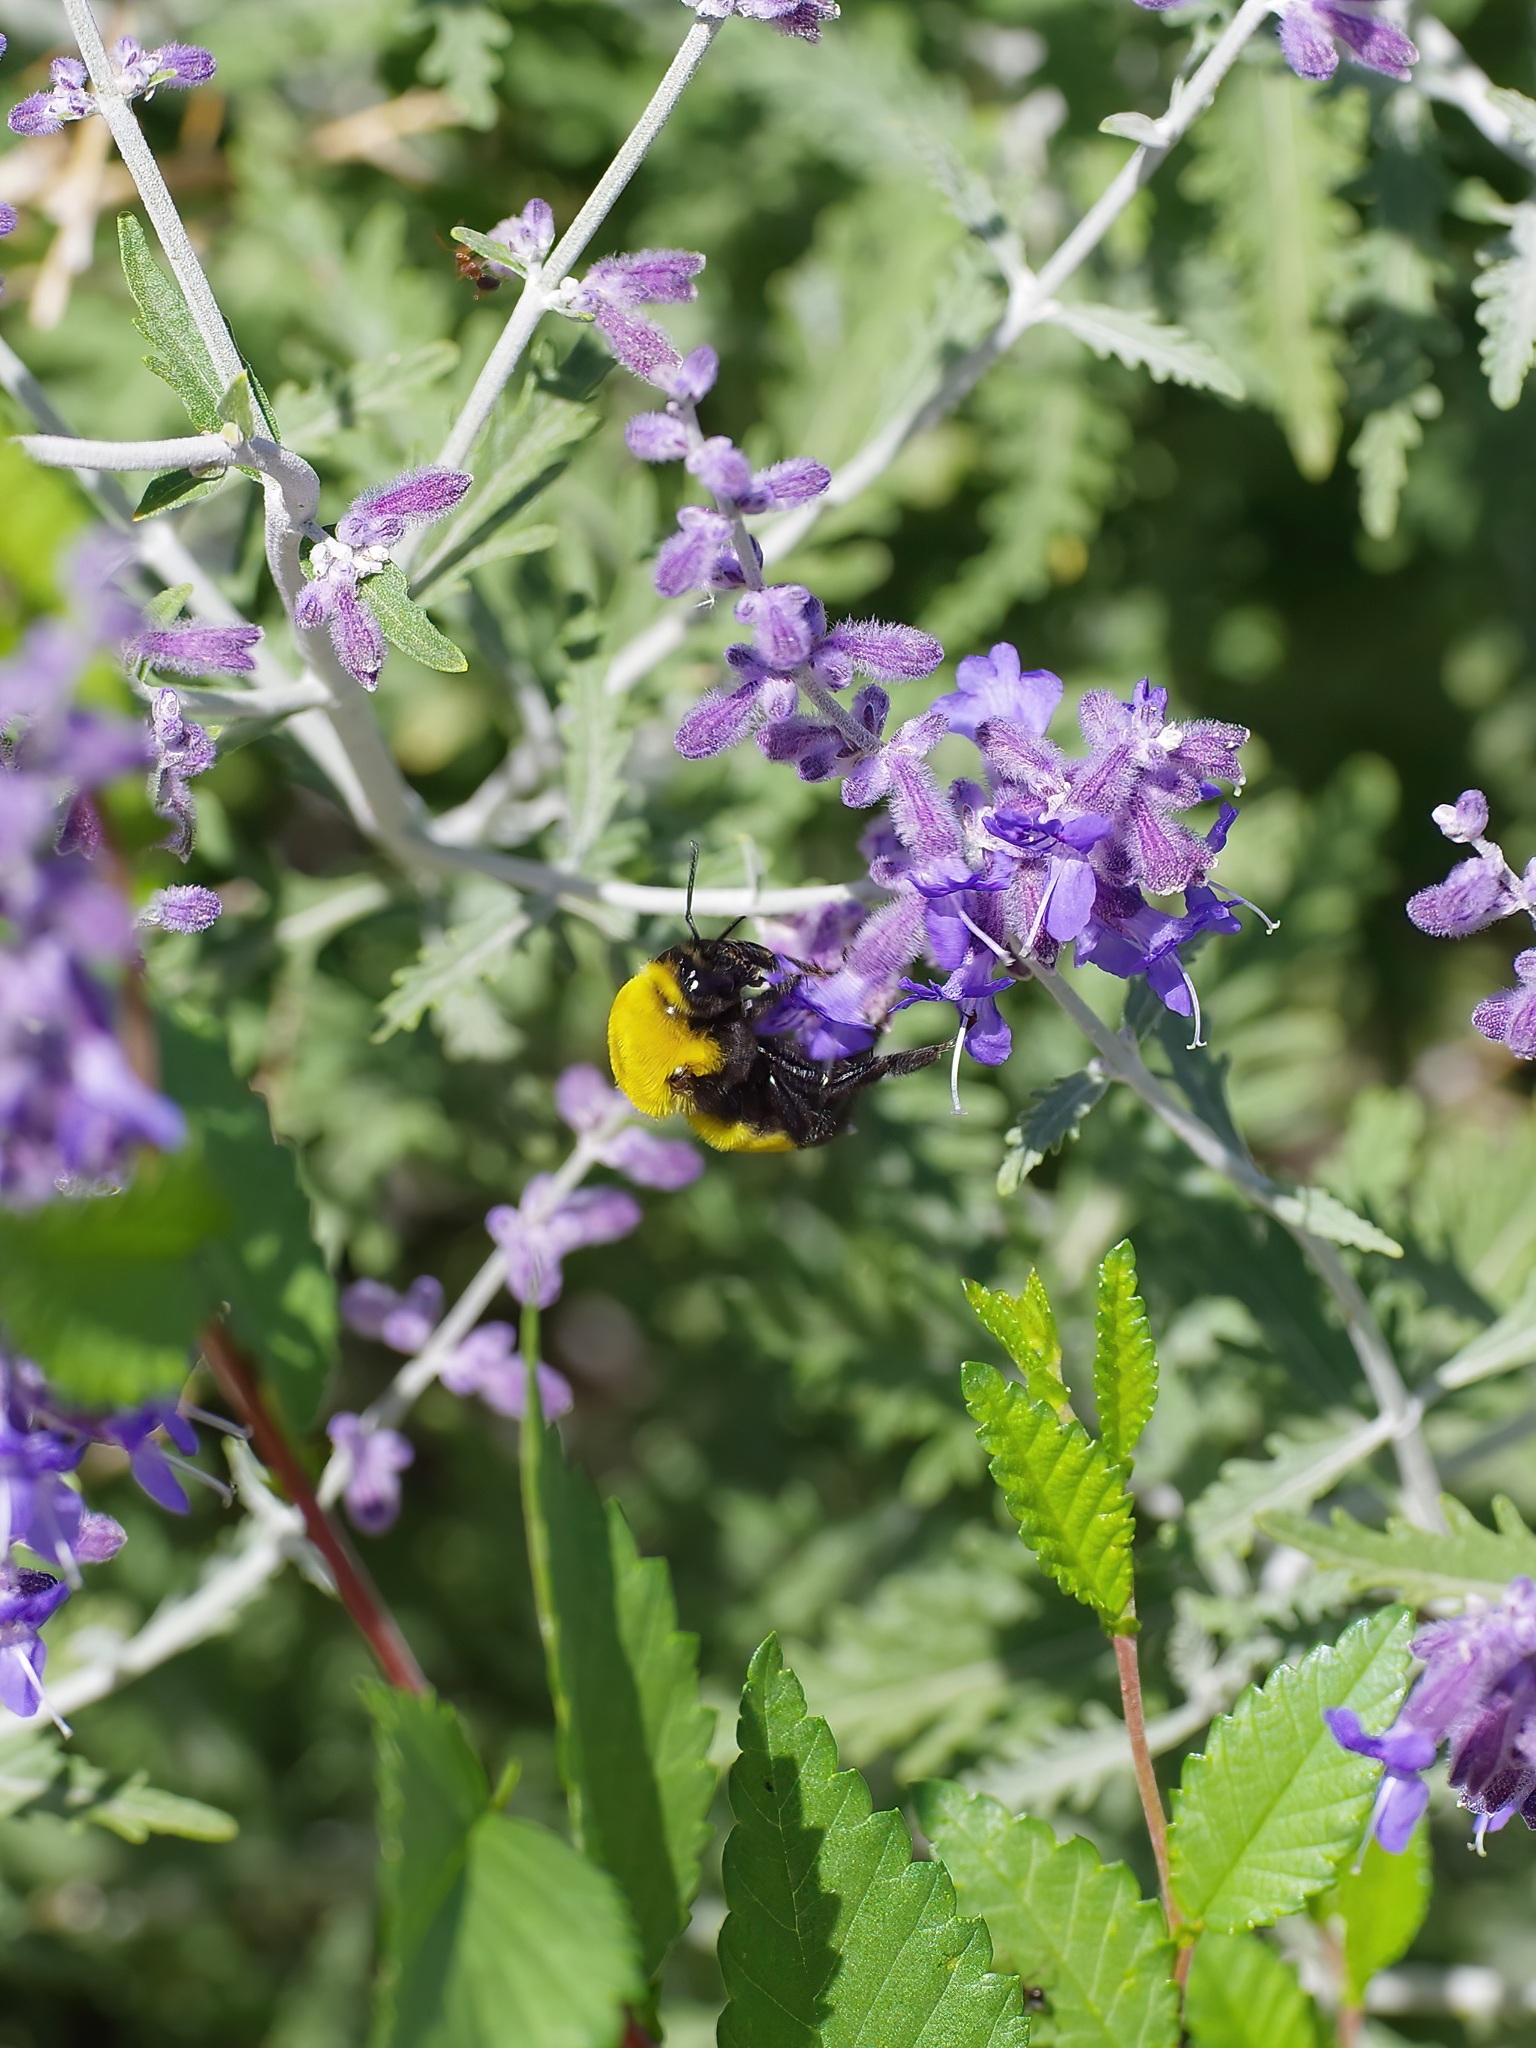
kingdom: Animalia
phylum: Arthropoda
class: Insecta
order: Hymenoptera
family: Apidae
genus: Bombus
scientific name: Bombus morrisoni
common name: Morrison bumble bee
